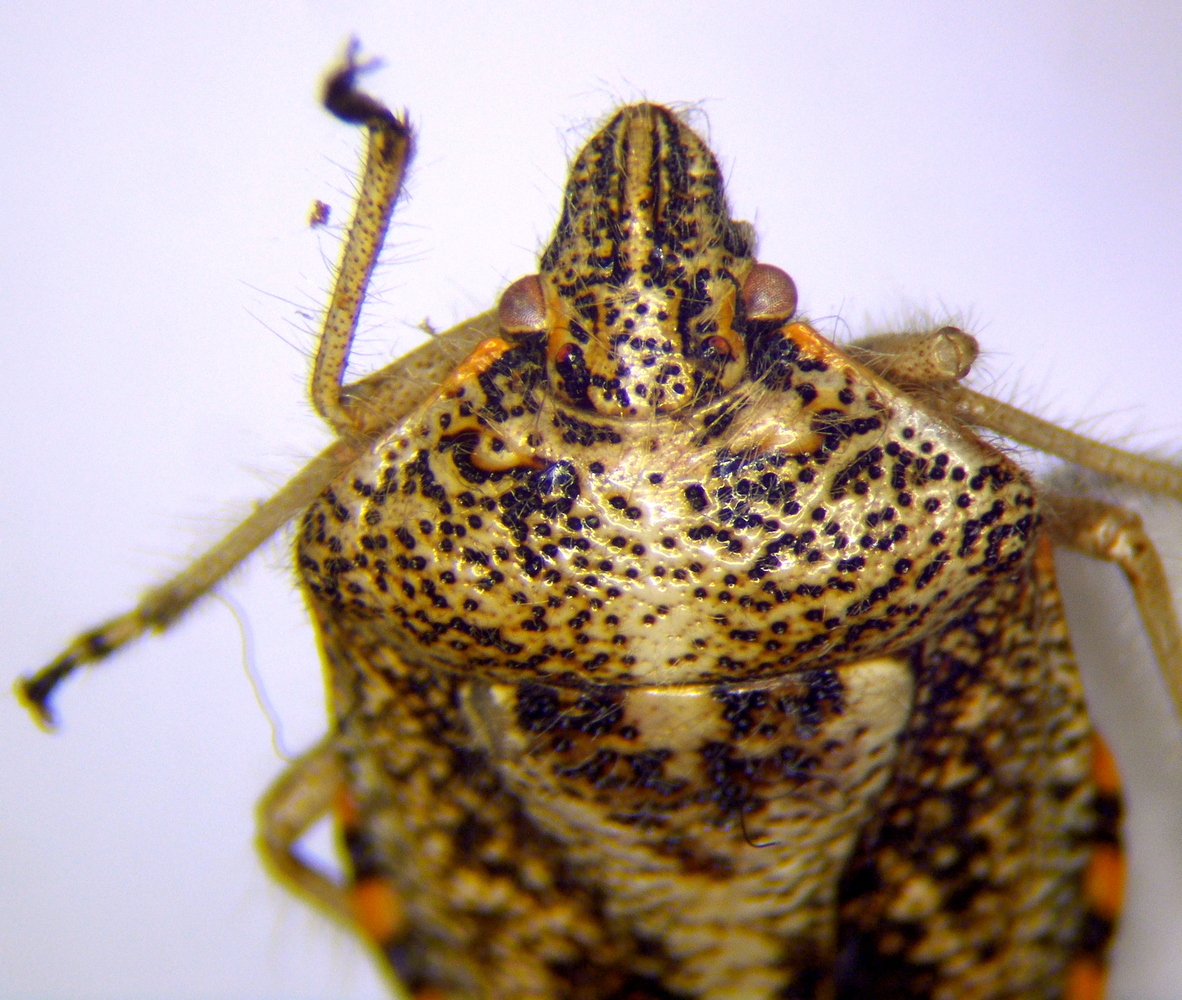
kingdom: Animalia
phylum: Arthropoda
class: Insecta
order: Hemiptera
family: Pentatomidae
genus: Agonoscelis
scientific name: Agonoscelis puberula
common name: African cluster bug
